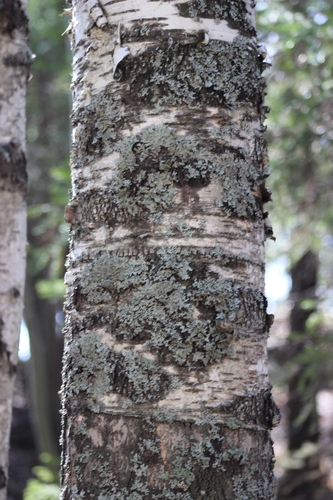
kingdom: Fungi
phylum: Ascomycota
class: Lecanoromycetes
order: Lecanorales
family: Parmeliaceae
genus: Parmelia
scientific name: Parmelia sulcata
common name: Netted shield lichen
